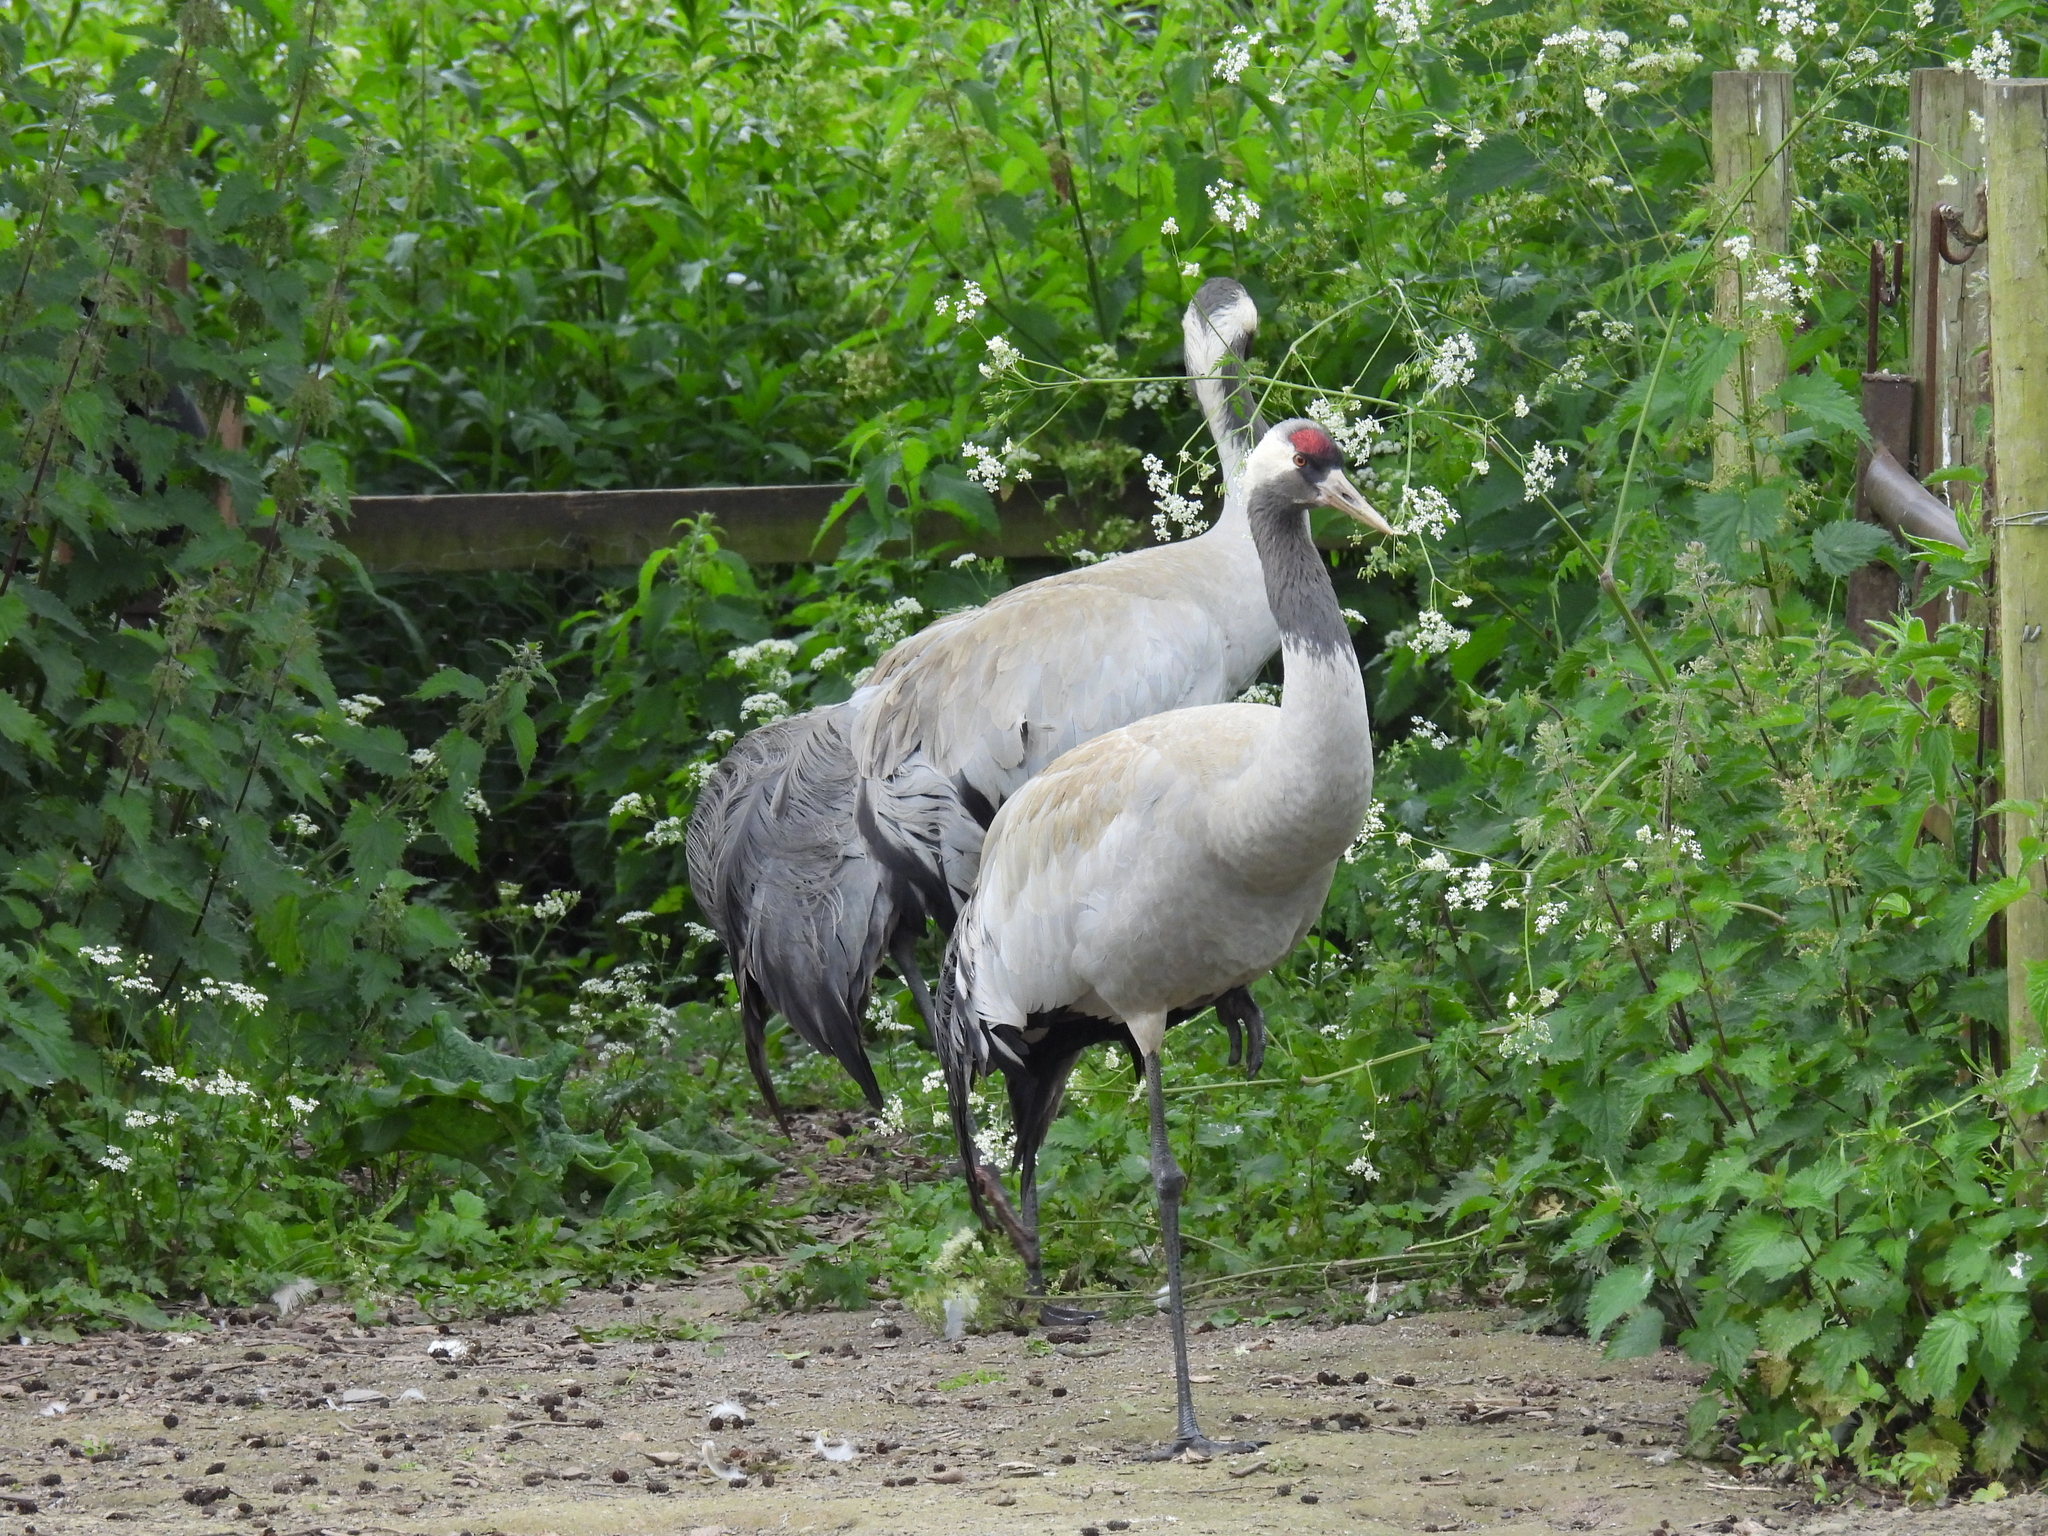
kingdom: Animalia
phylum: Chordata
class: Aves
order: Gruiformes
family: Gruidae
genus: Grus
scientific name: Grus grus
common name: Common crane
